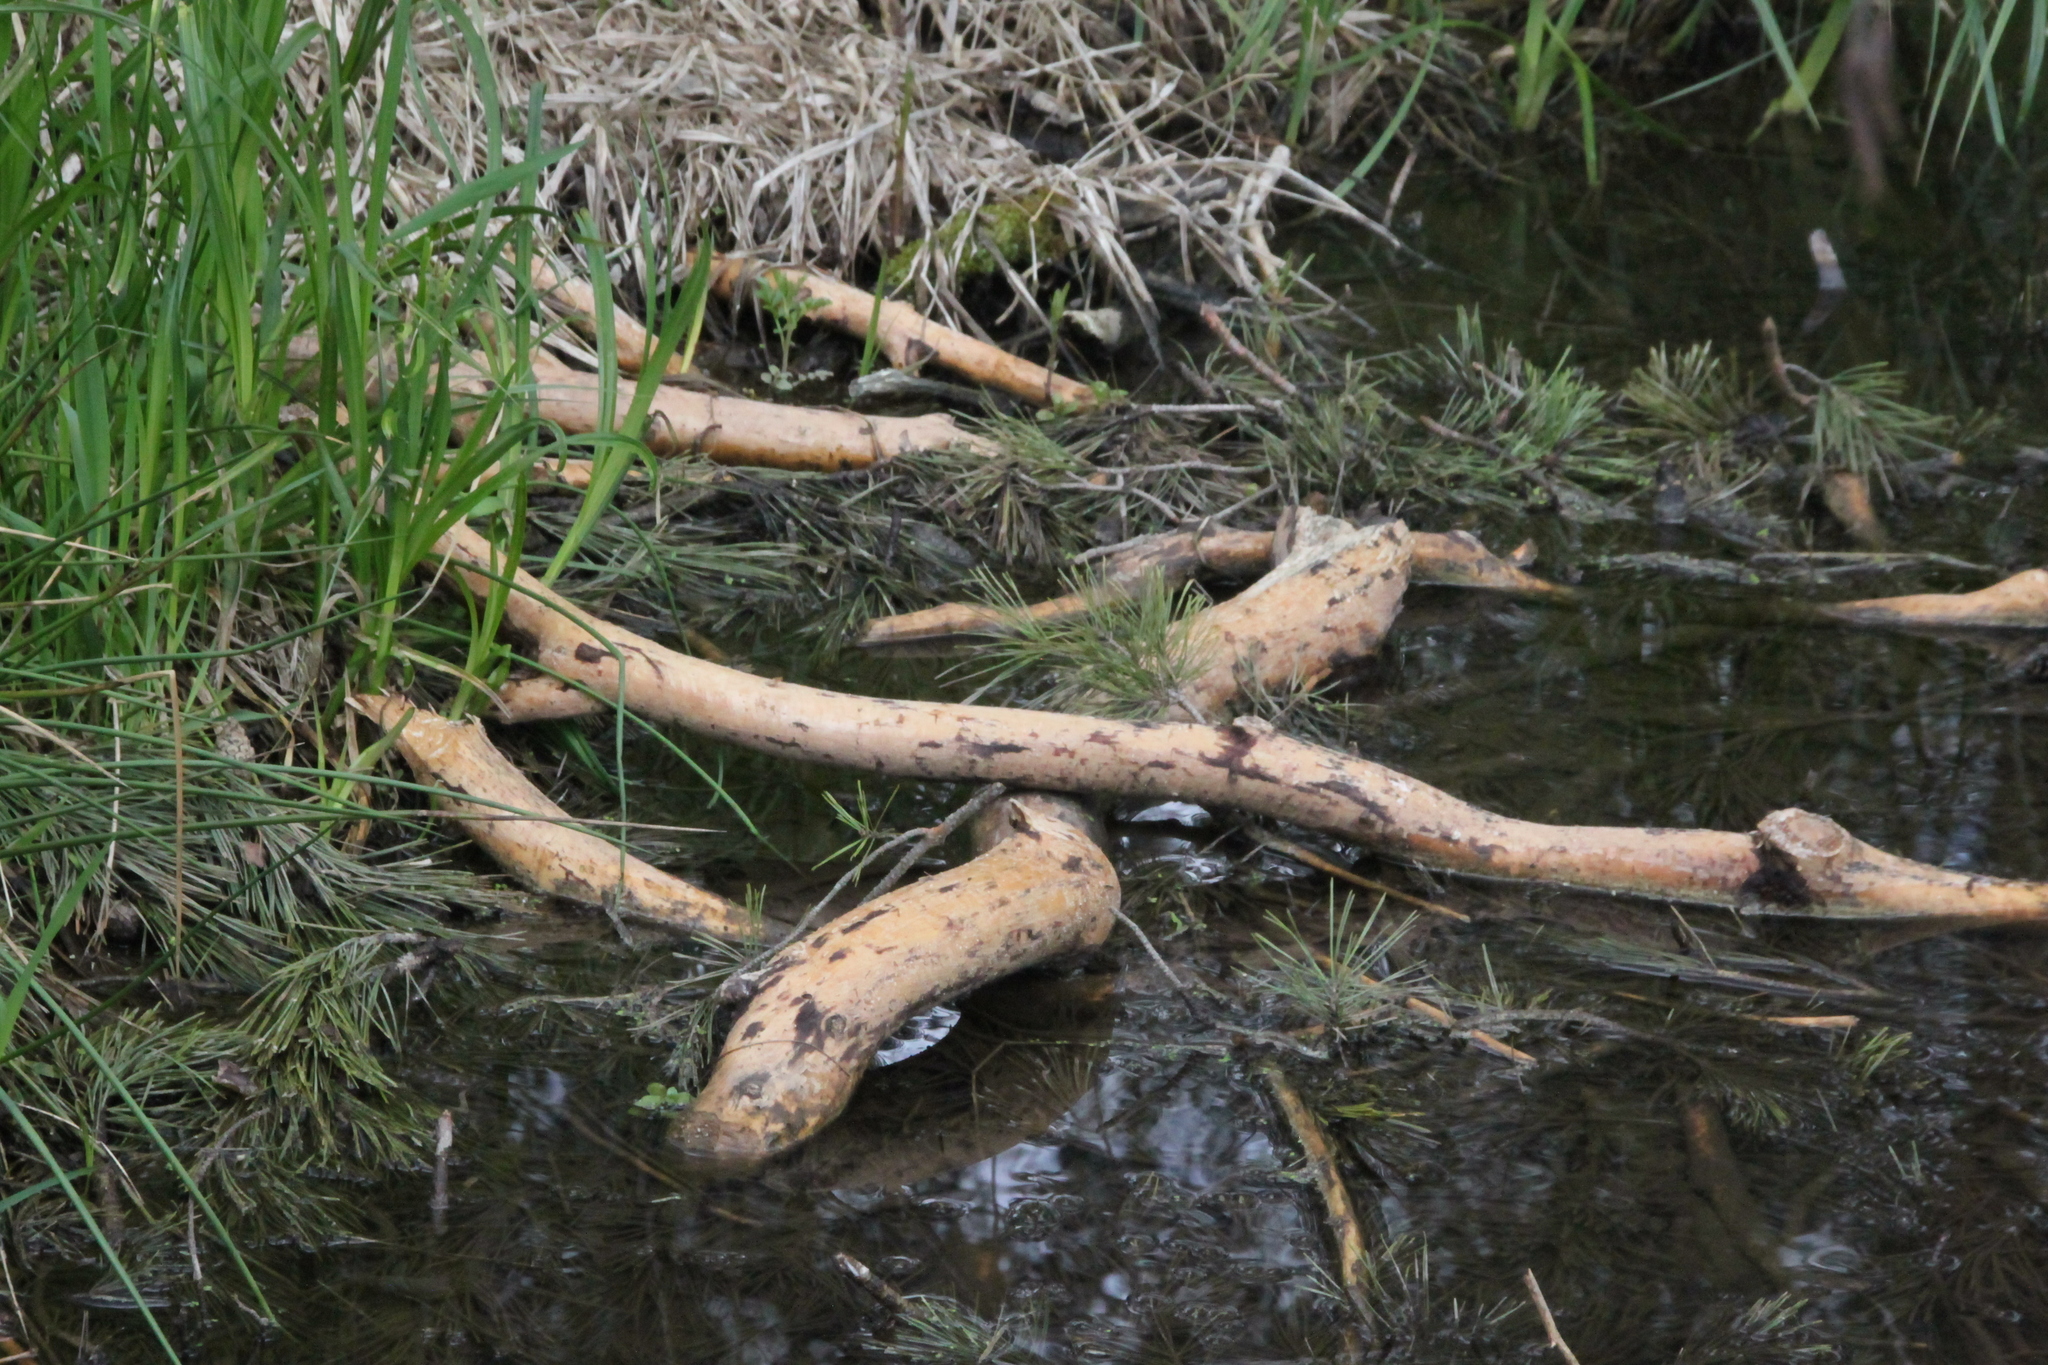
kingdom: Animalia
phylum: Chordata
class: Mammalia
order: Rodentia
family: Castoridae
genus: Castor
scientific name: Castor fiber
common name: Eurasian beaver
